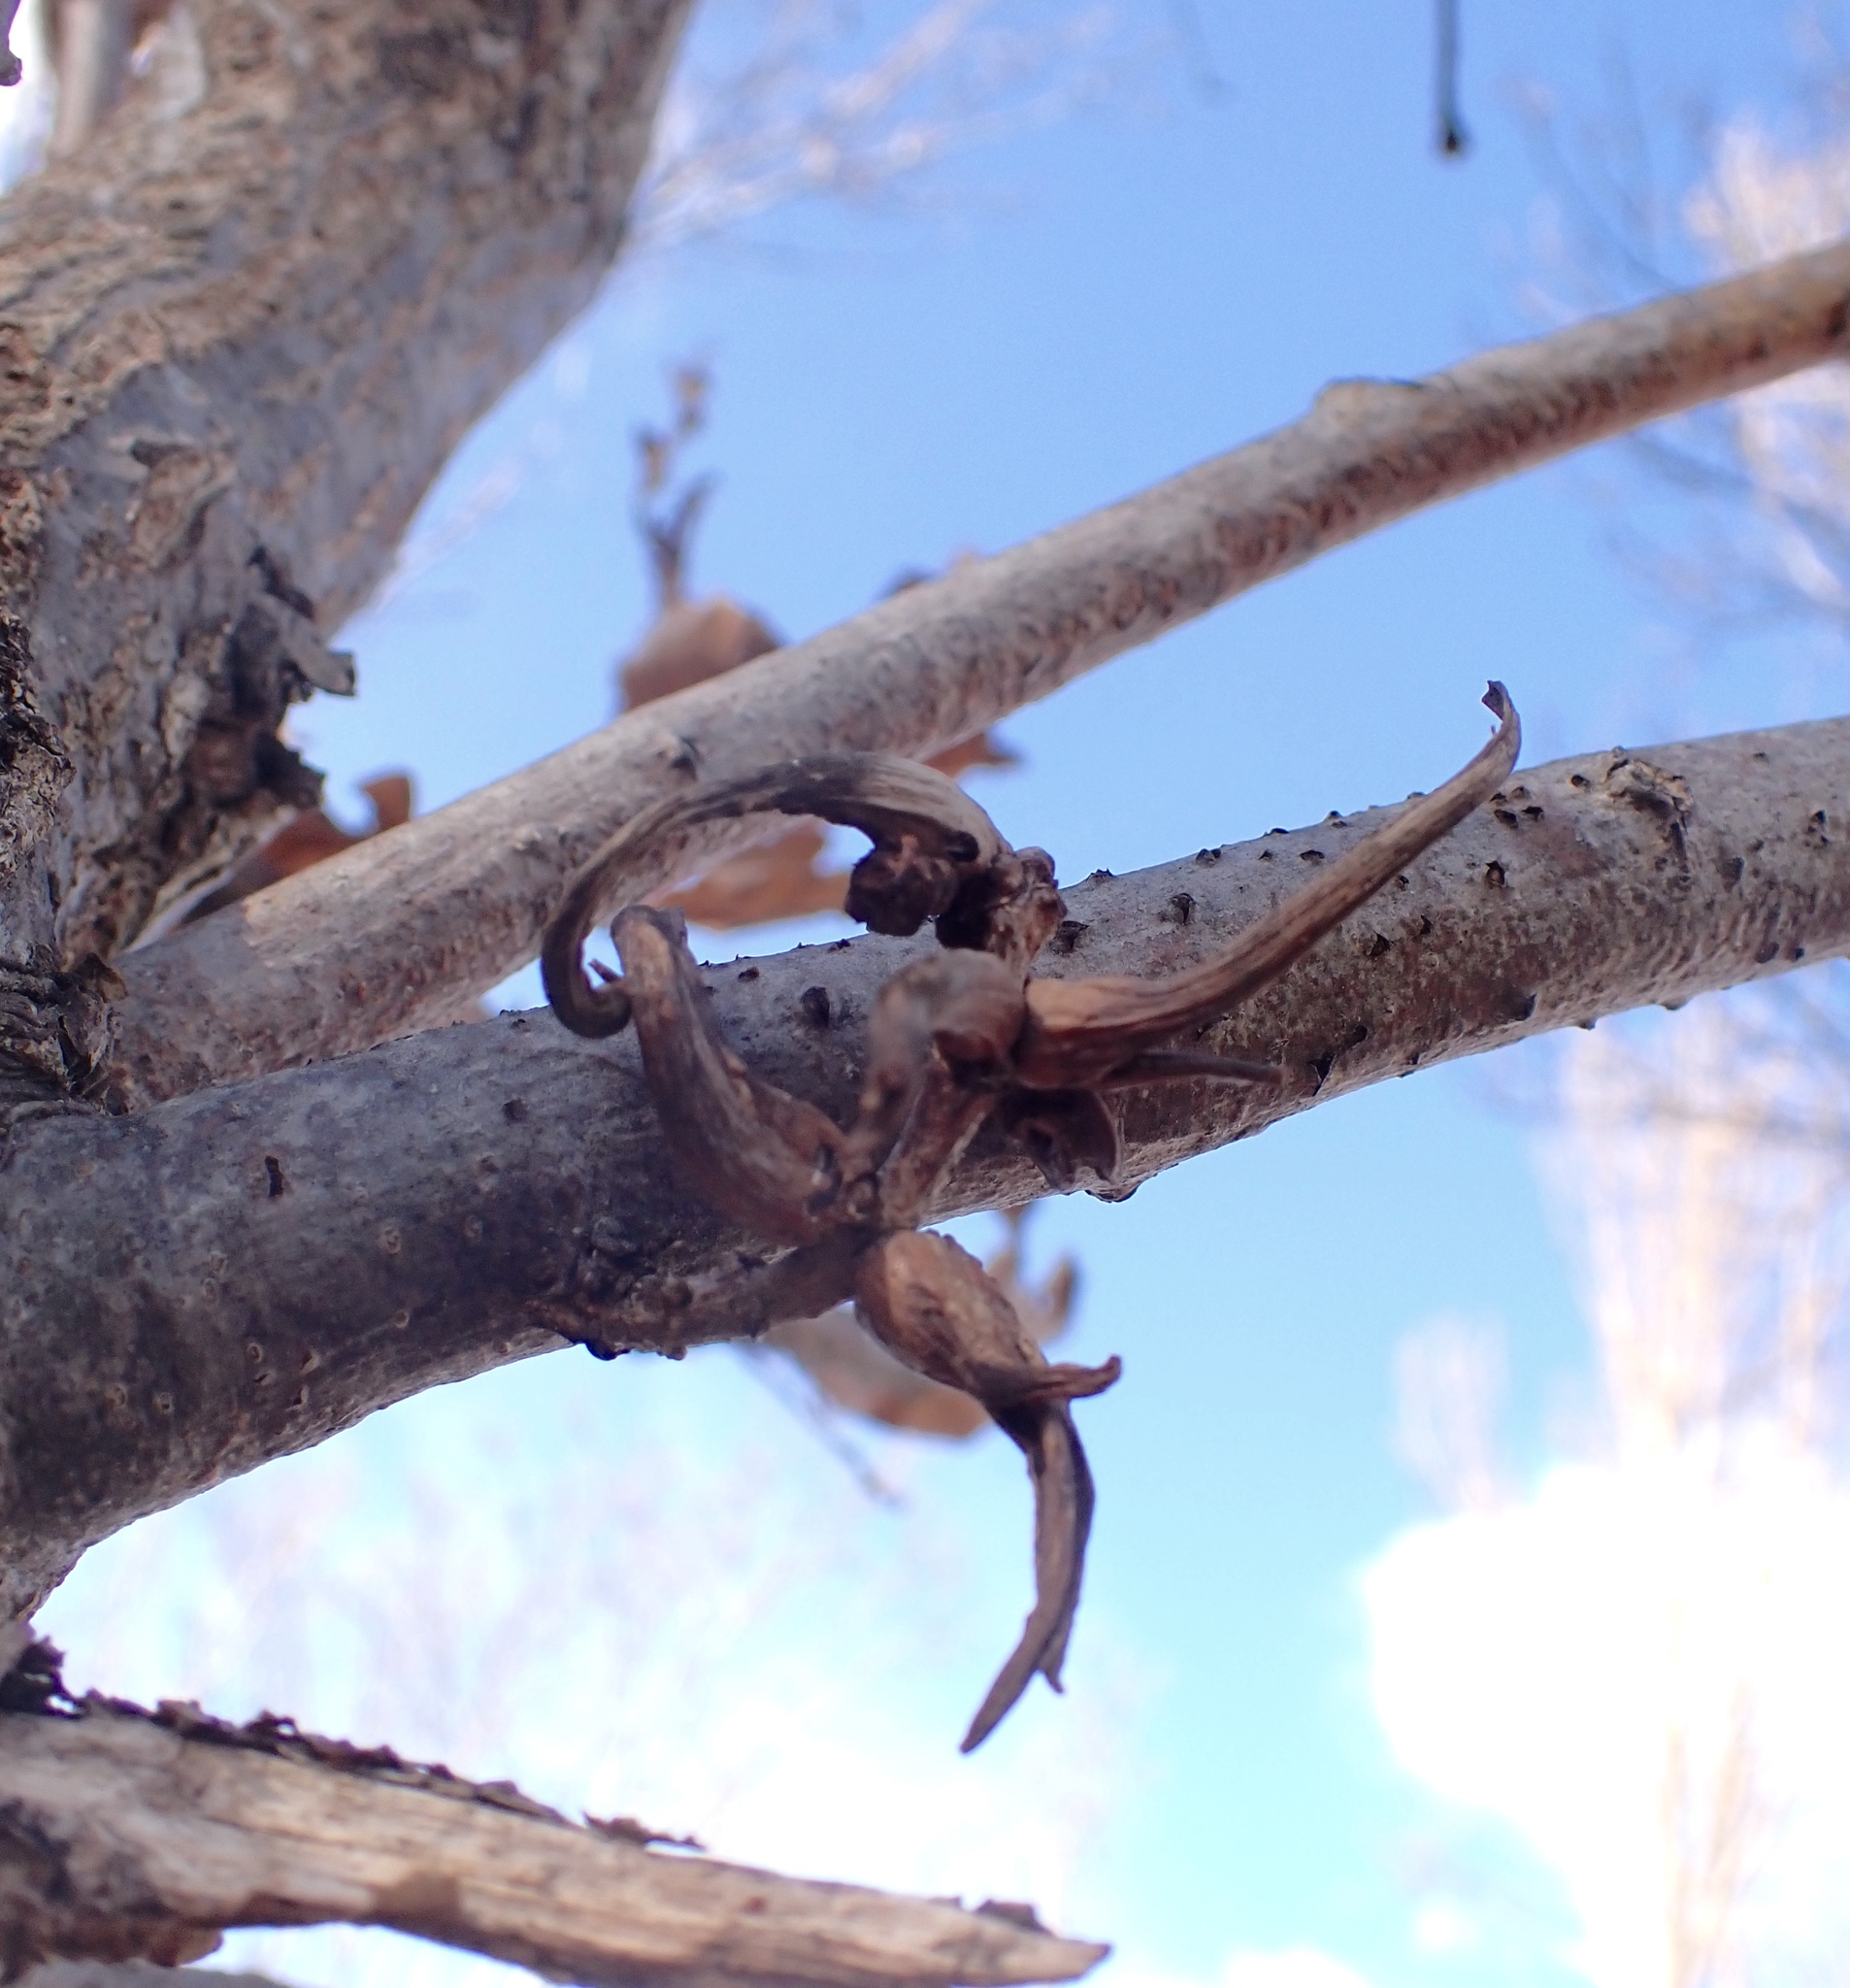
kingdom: Animalia
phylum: Arthropoda
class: Insecta
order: Hymenoptera
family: Cynipidae
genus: Andricus
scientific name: Andricus aries
